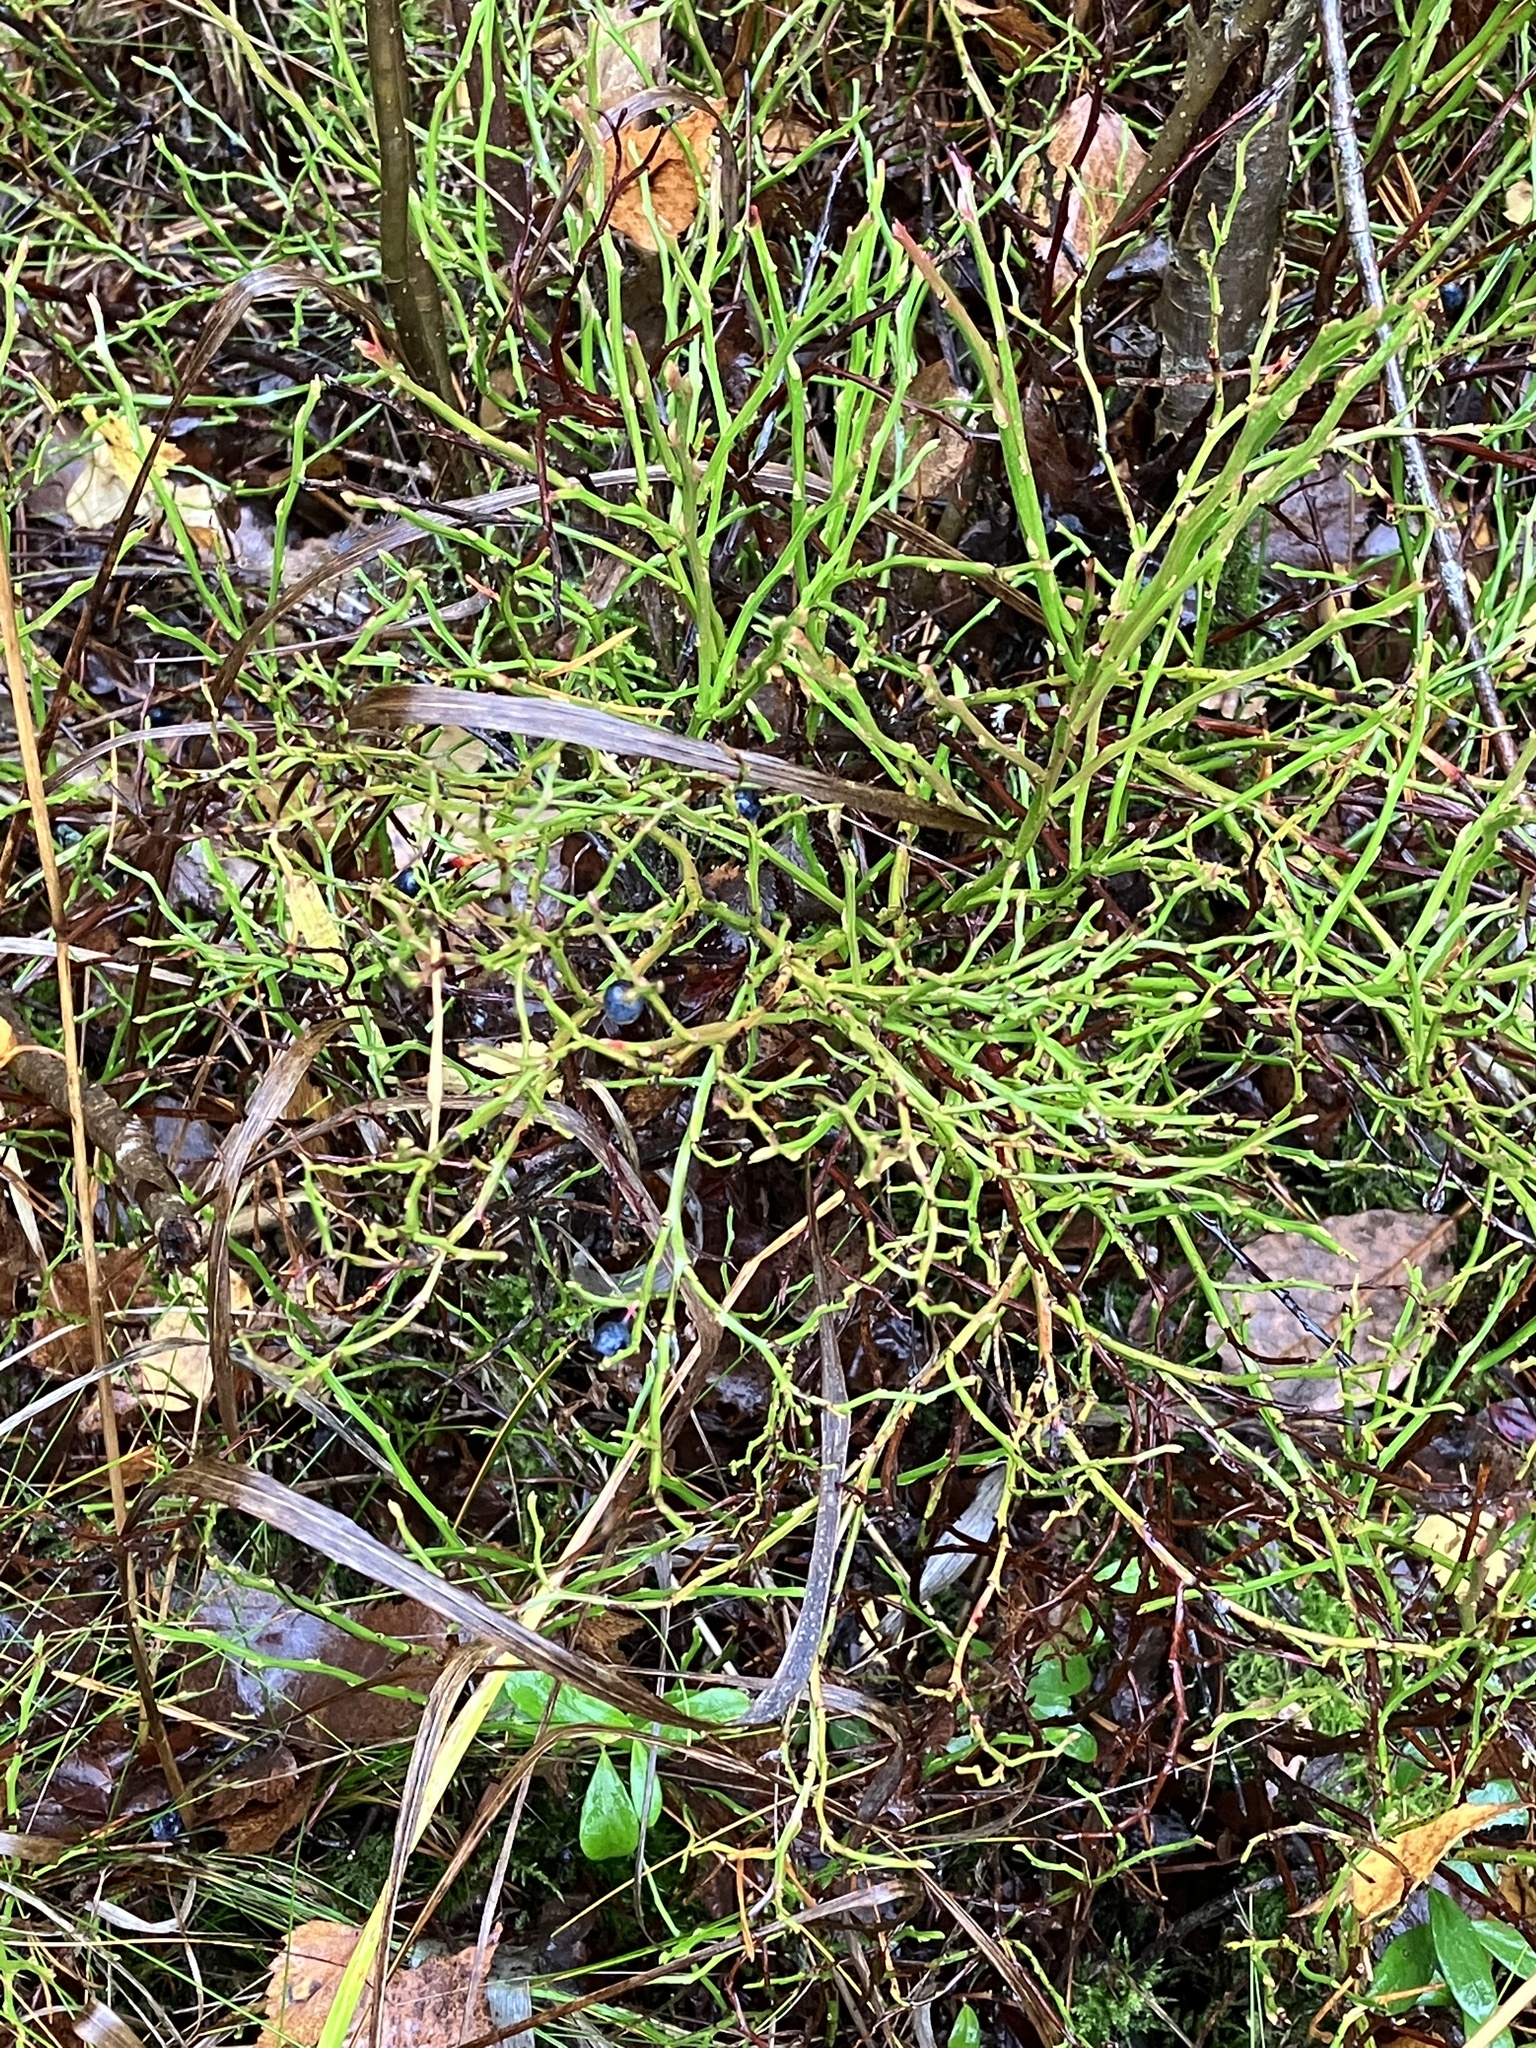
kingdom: Plantae
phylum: Tracheophyta
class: Magnoliopsida
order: Ericales
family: Ericaceae
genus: Vaccinium
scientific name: Vaccinium myrtillus
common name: Bilberry
